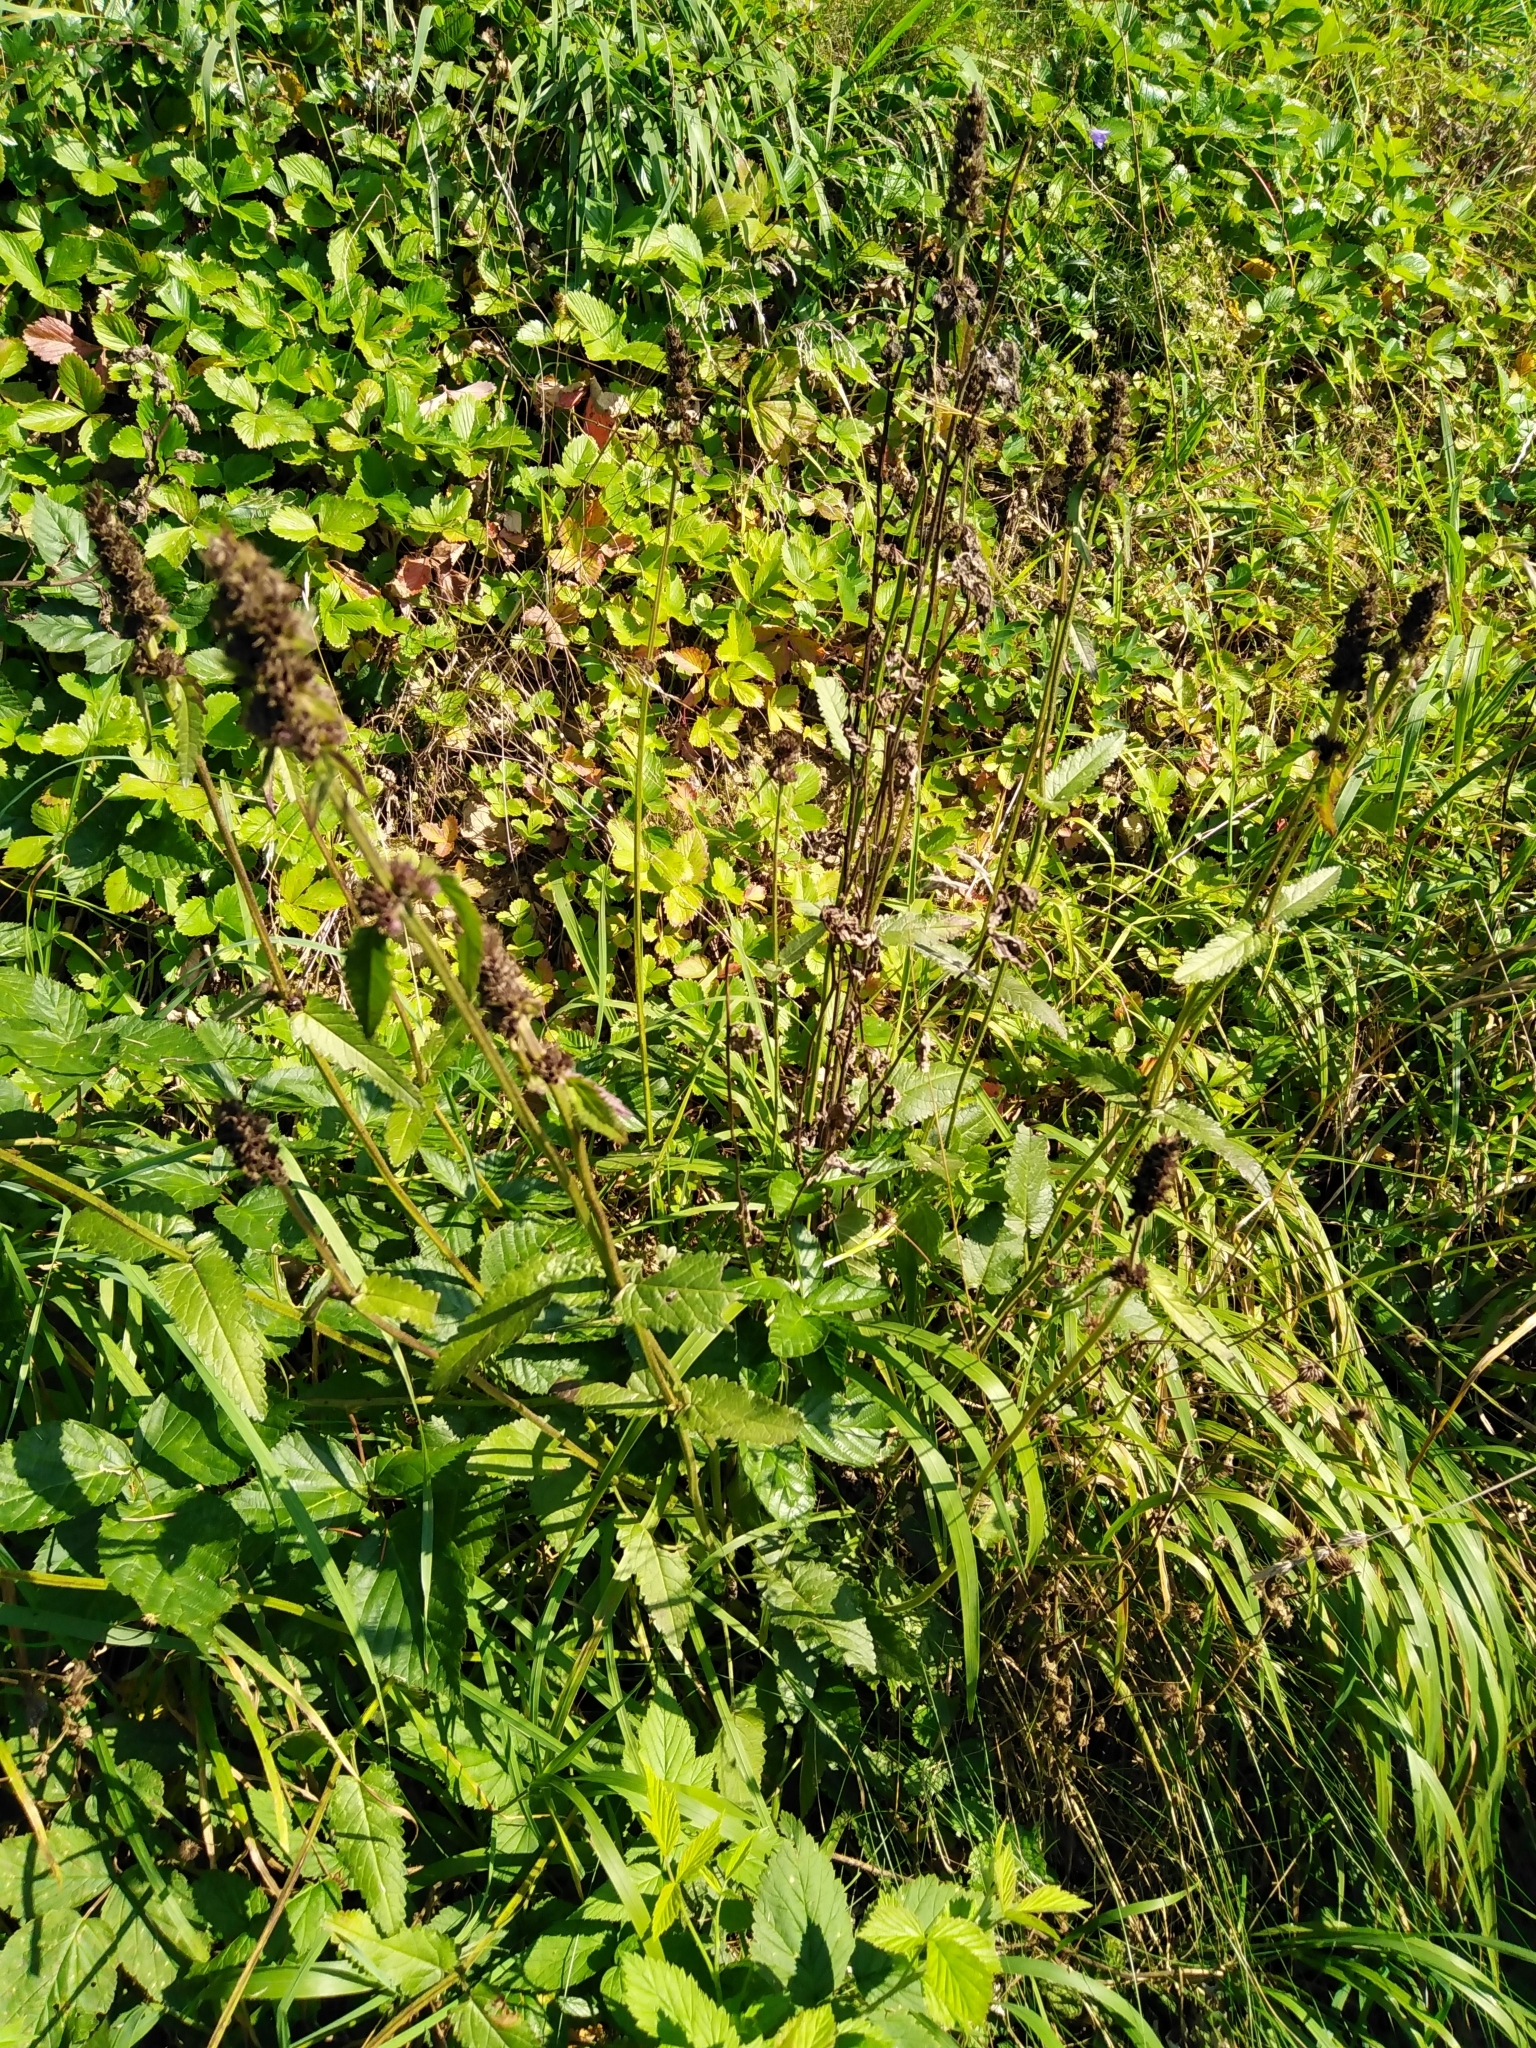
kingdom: Plantae
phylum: Tracheophyta
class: Magnoliopsida
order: Lamiales
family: Lamiaceae
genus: Betonica
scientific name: Betonica officinalis
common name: Bishop's-wort
